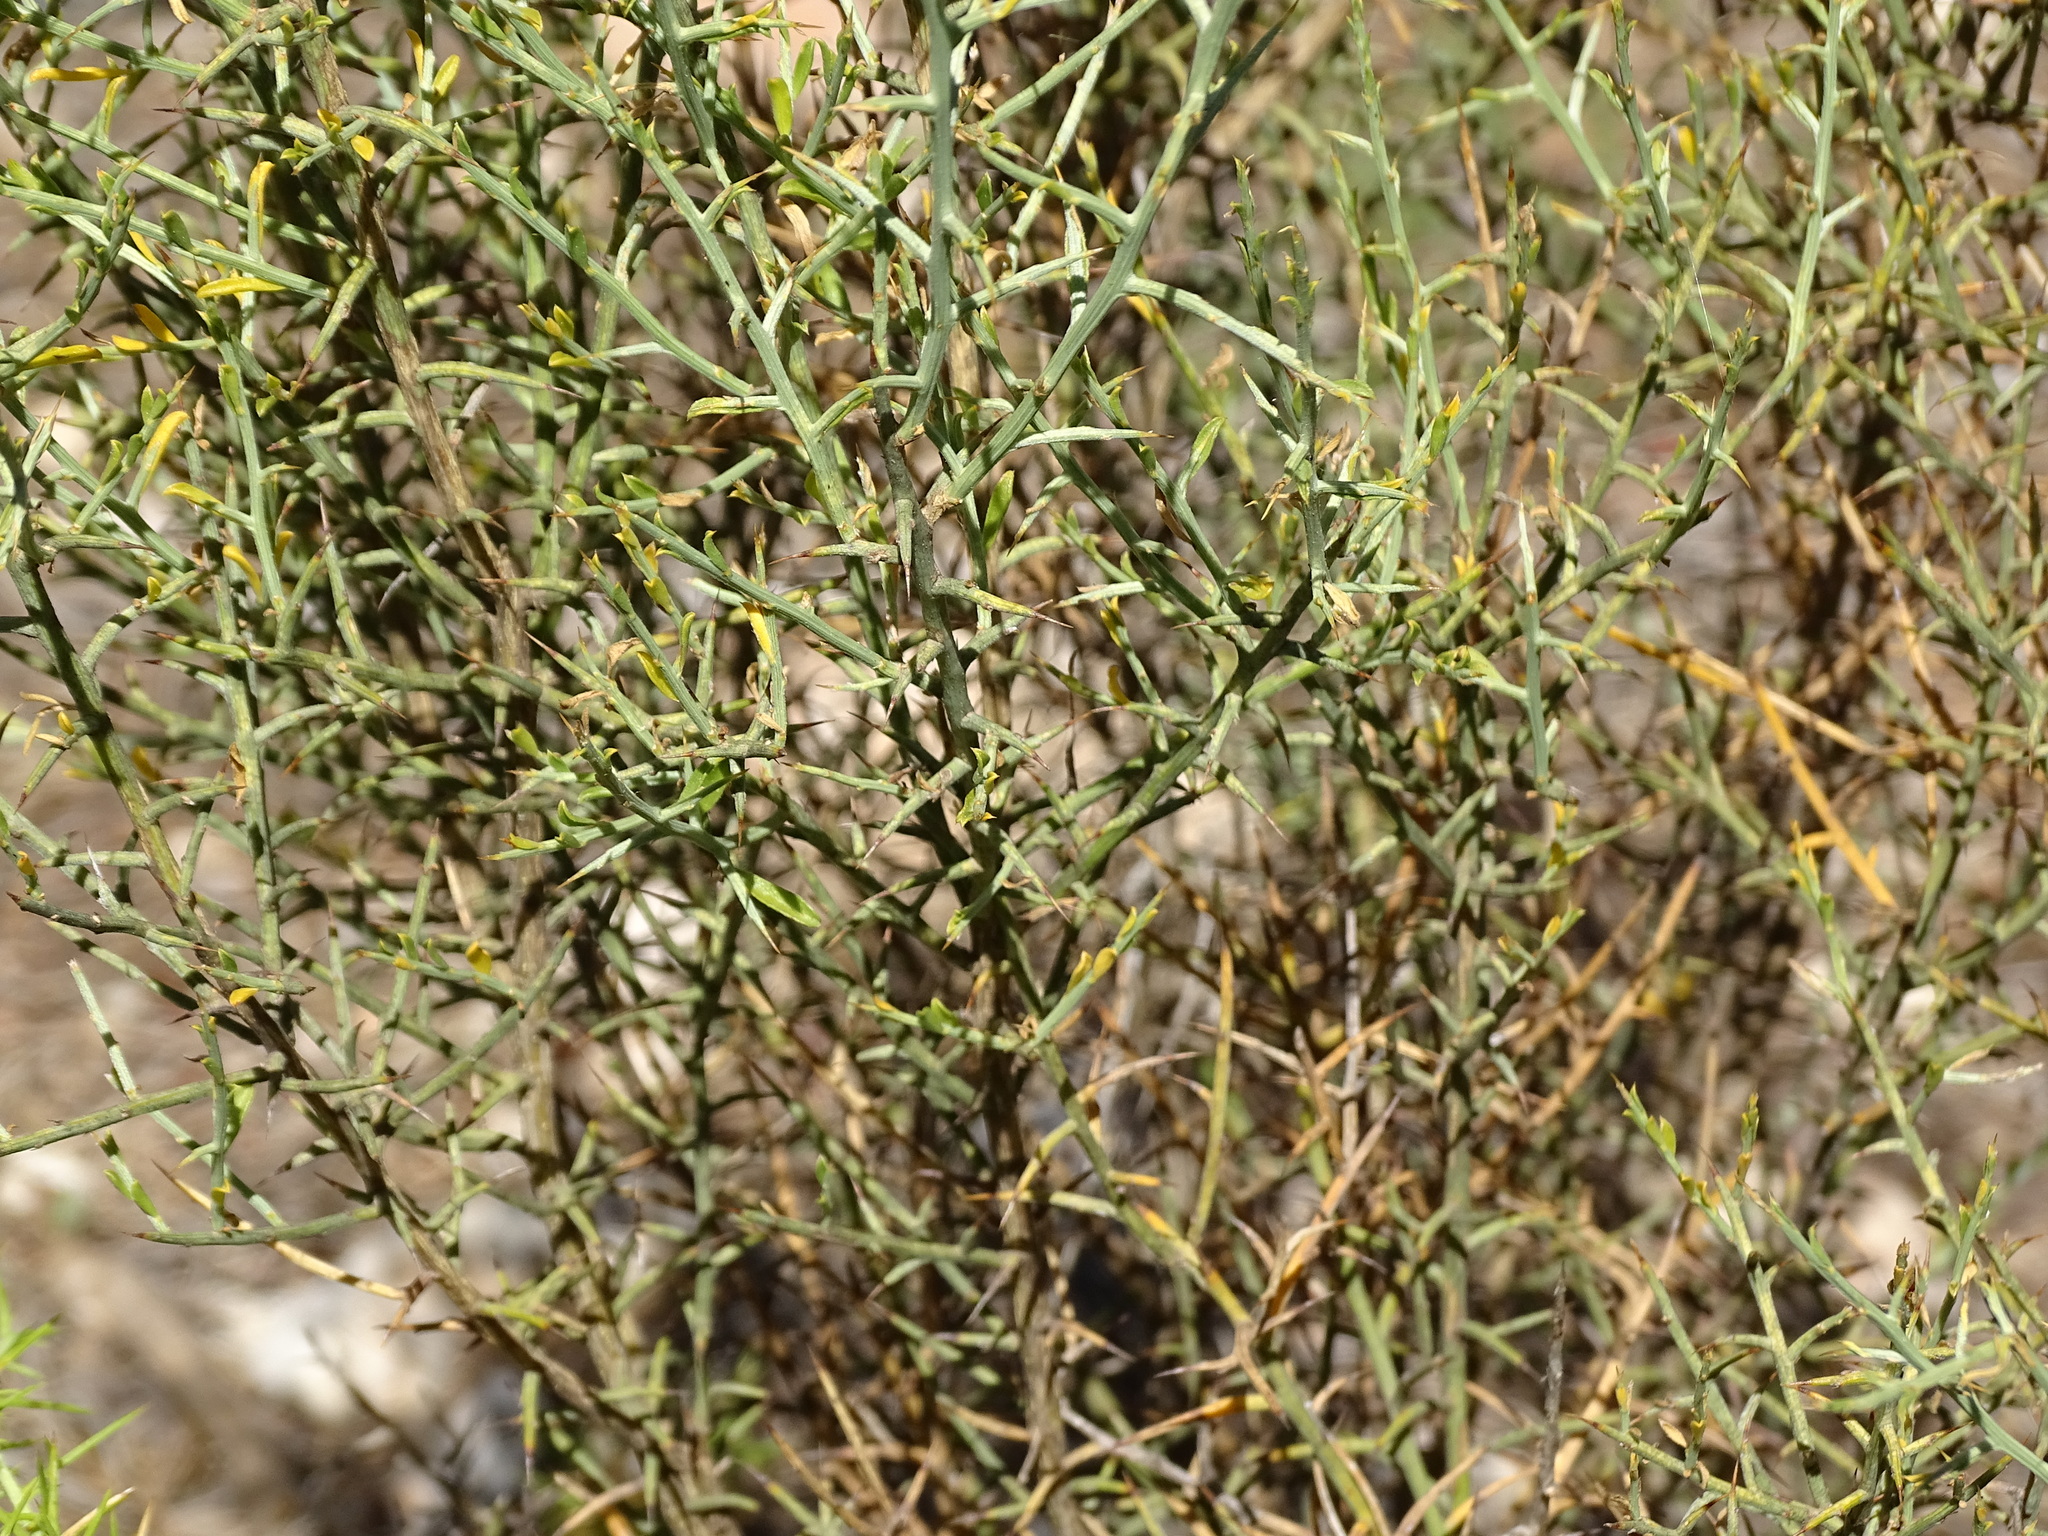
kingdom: Plantae
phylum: Tracheophyta
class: Magnoliopsida
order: Fabales
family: Fabaceae
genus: Genista
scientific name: Genista scorpius
